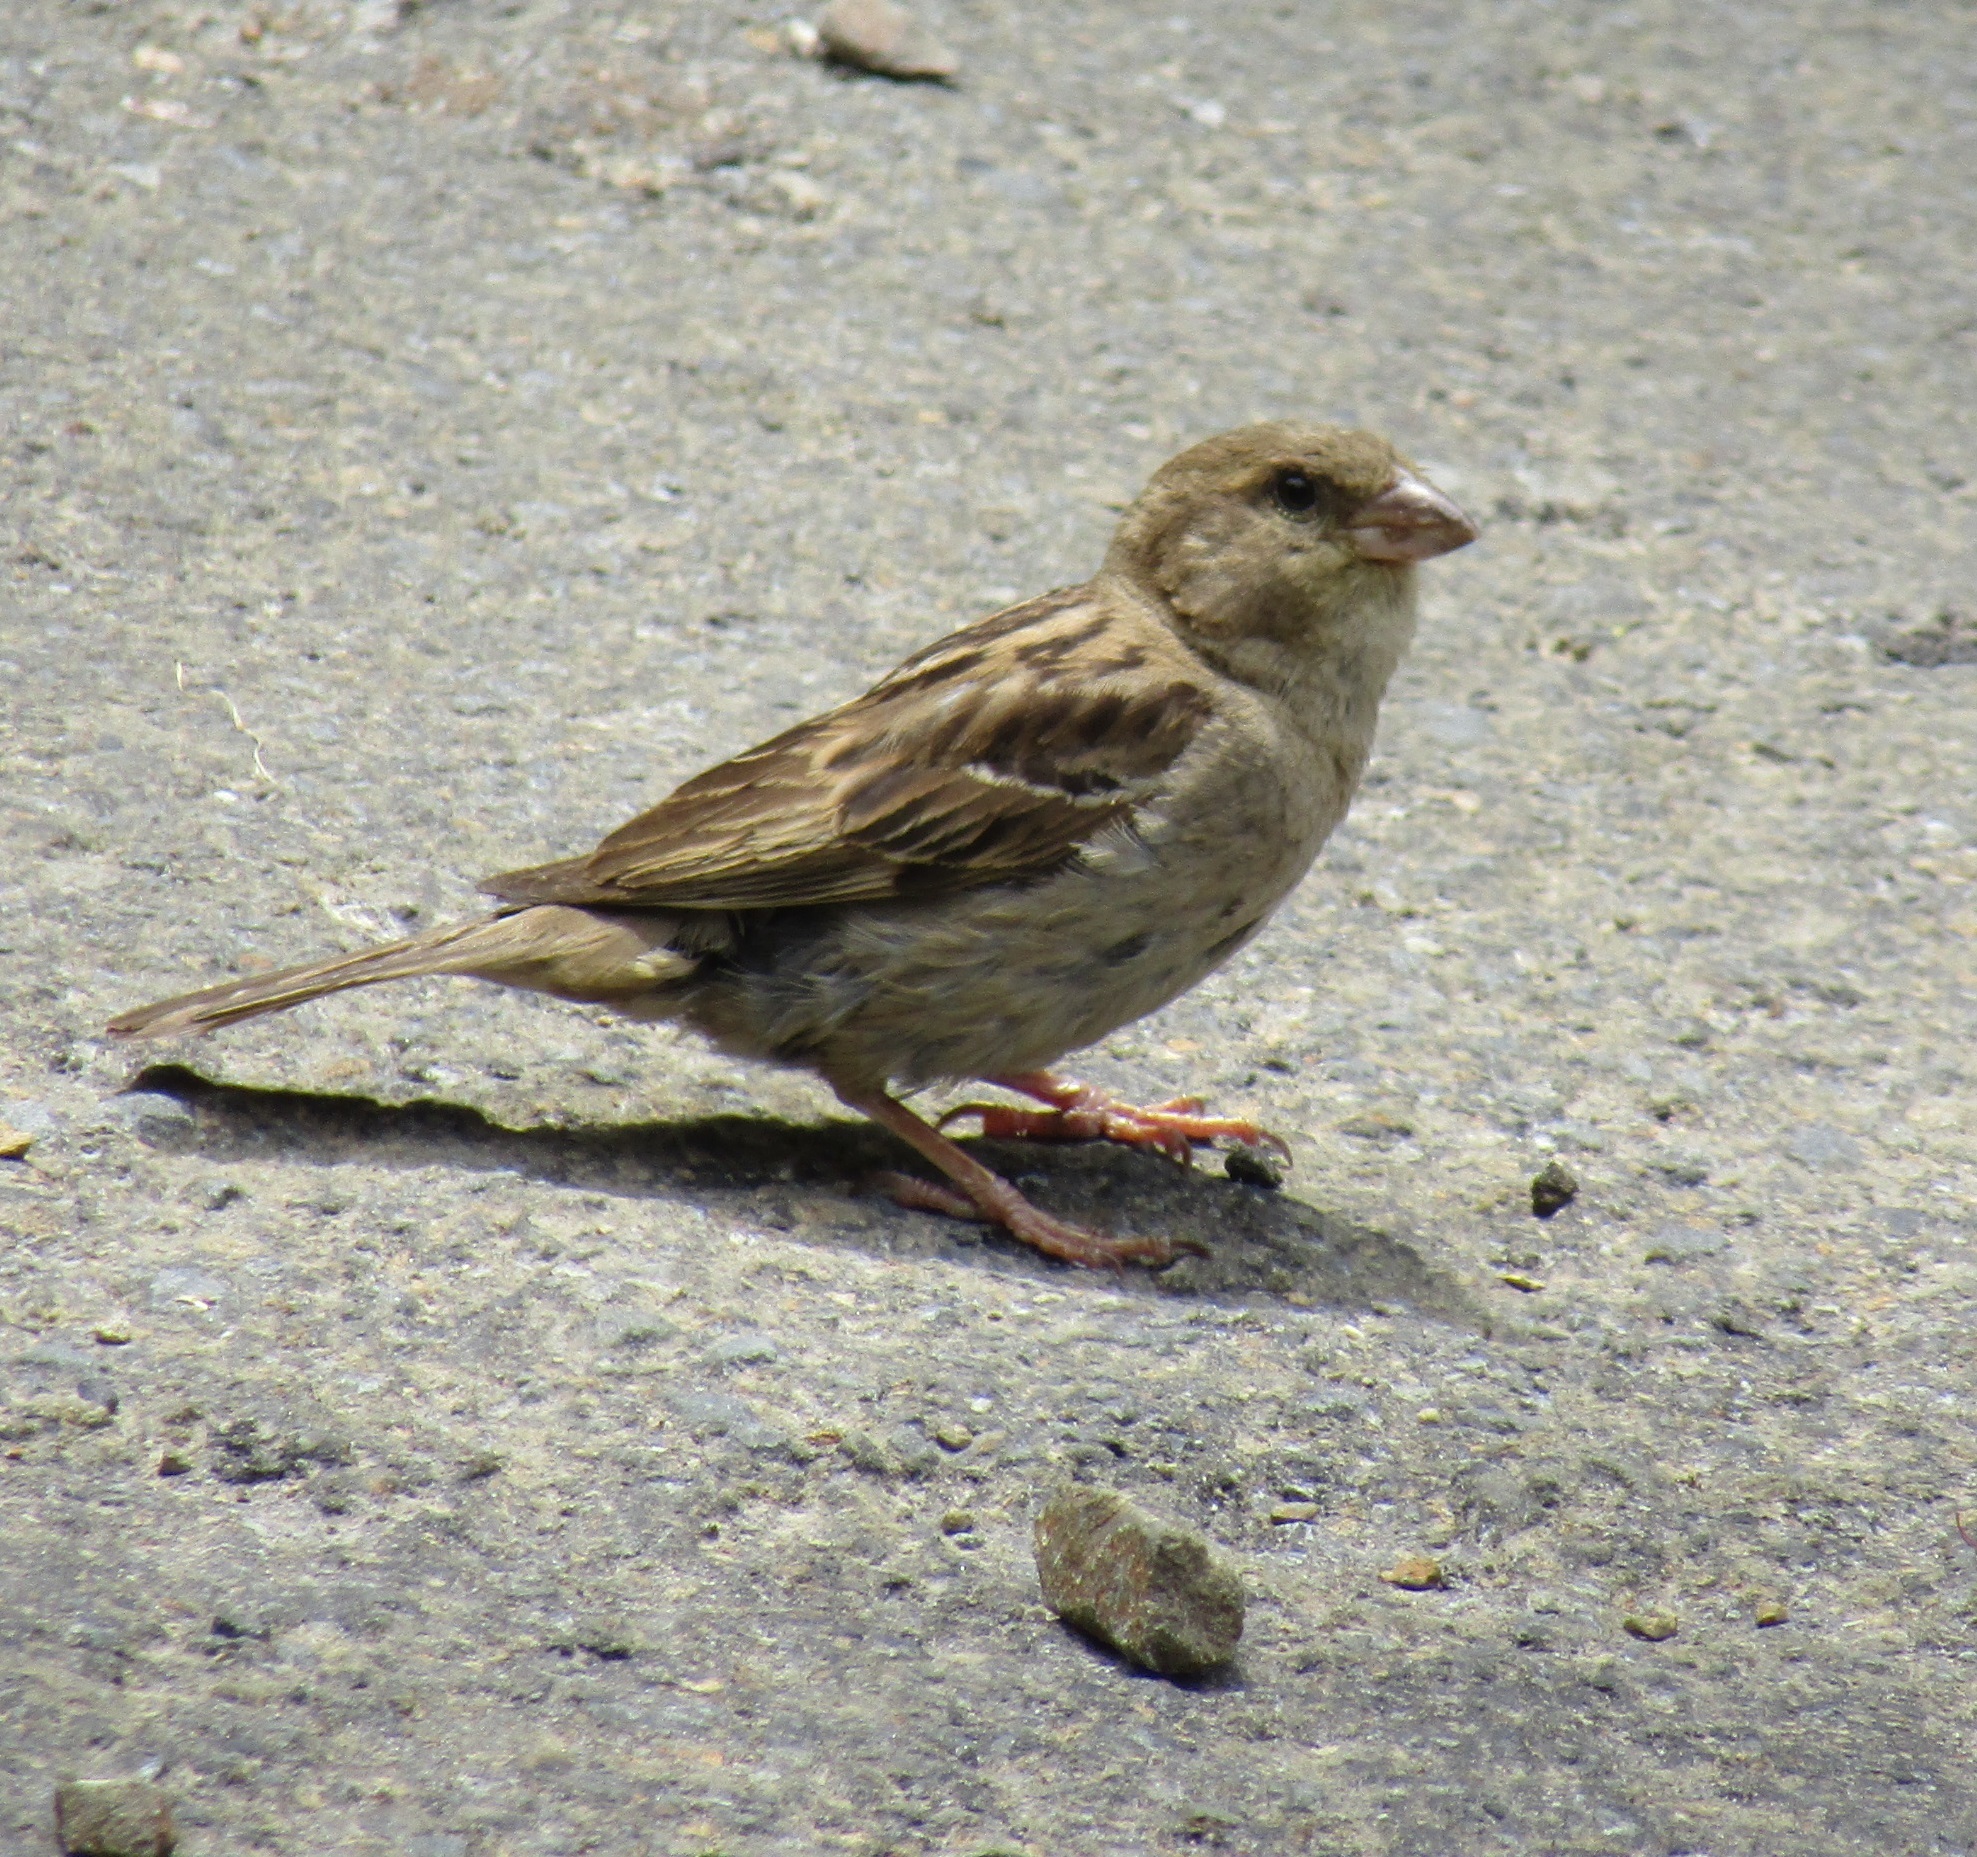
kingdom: Animalia
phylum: Chordata
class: Aves
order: Passeriformes
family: Passeridae
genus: Passer
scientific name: Passer domesticus
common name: House sparrow
